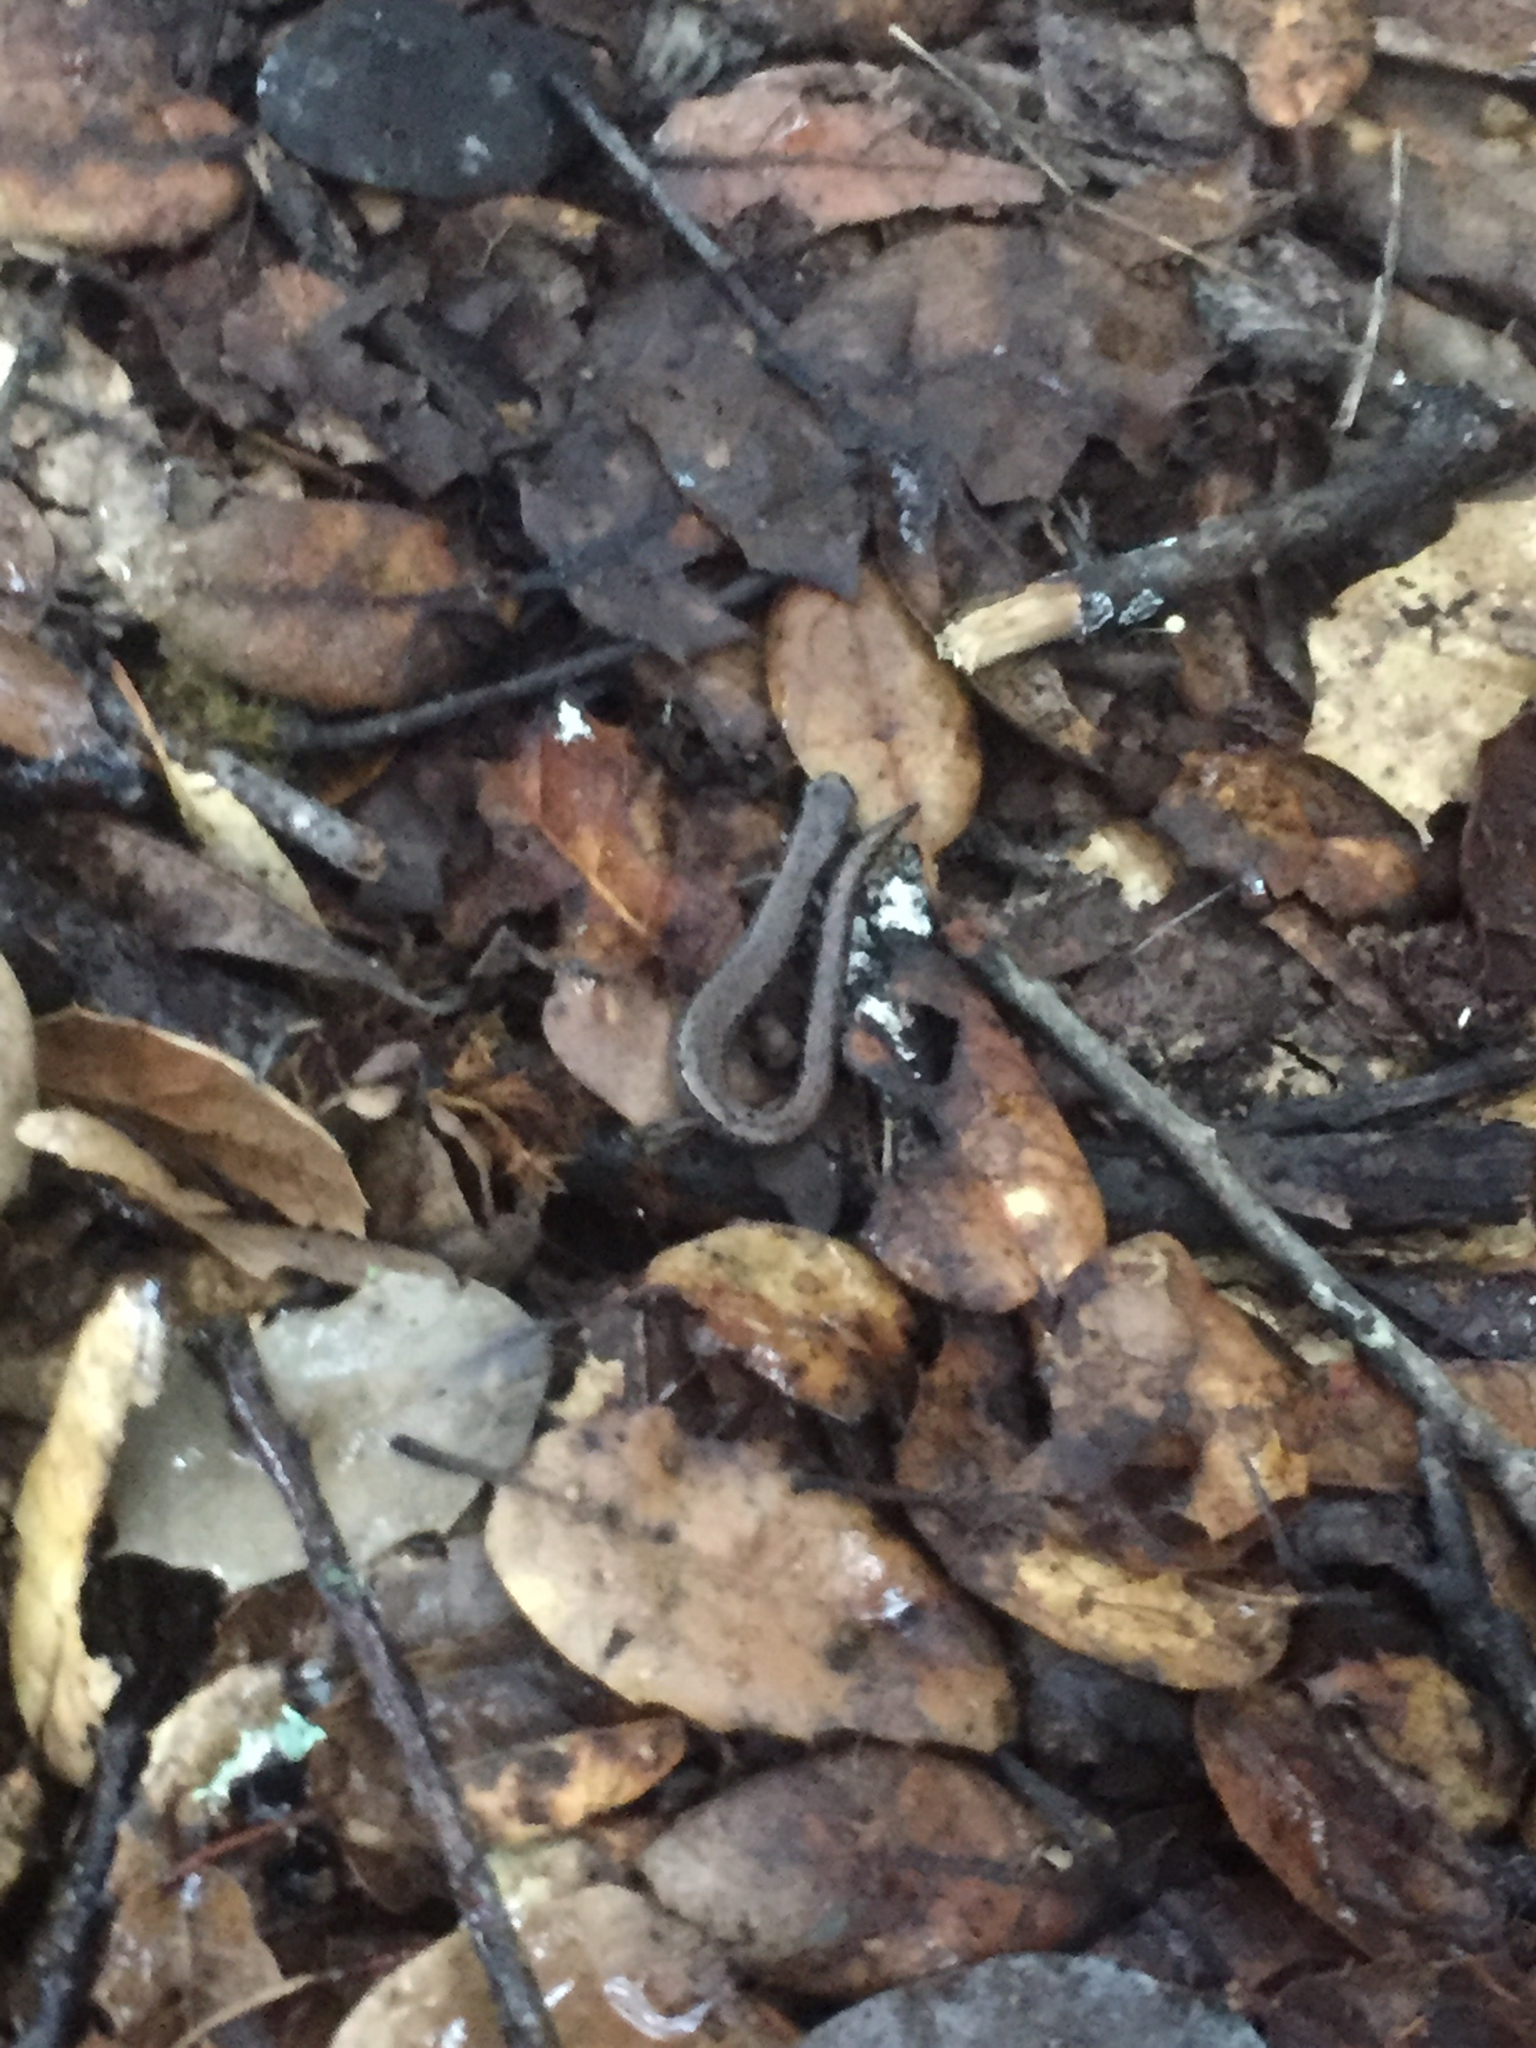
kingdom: Animalia
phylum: Chordata
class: Amphibia
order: Caudata
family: Plethodontidae
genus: Batrachoseps
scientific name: Batrachoseps attenuatus
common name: California slender salamander
